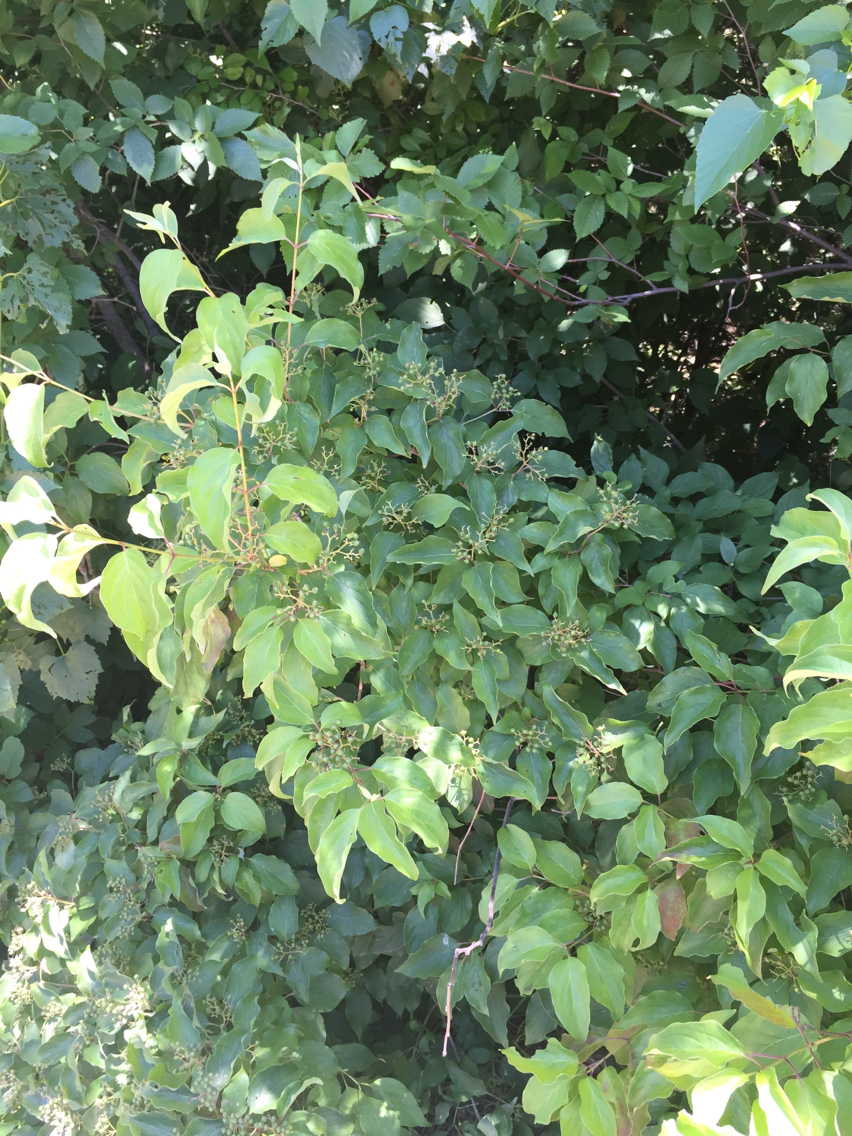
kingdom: Plantae
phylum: Tracheophyta
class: Magnoliopsida
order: Cornales
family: Cornaceae
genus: Cornus
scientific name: Cornus drummondii
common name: Rough-leaf dogwood
